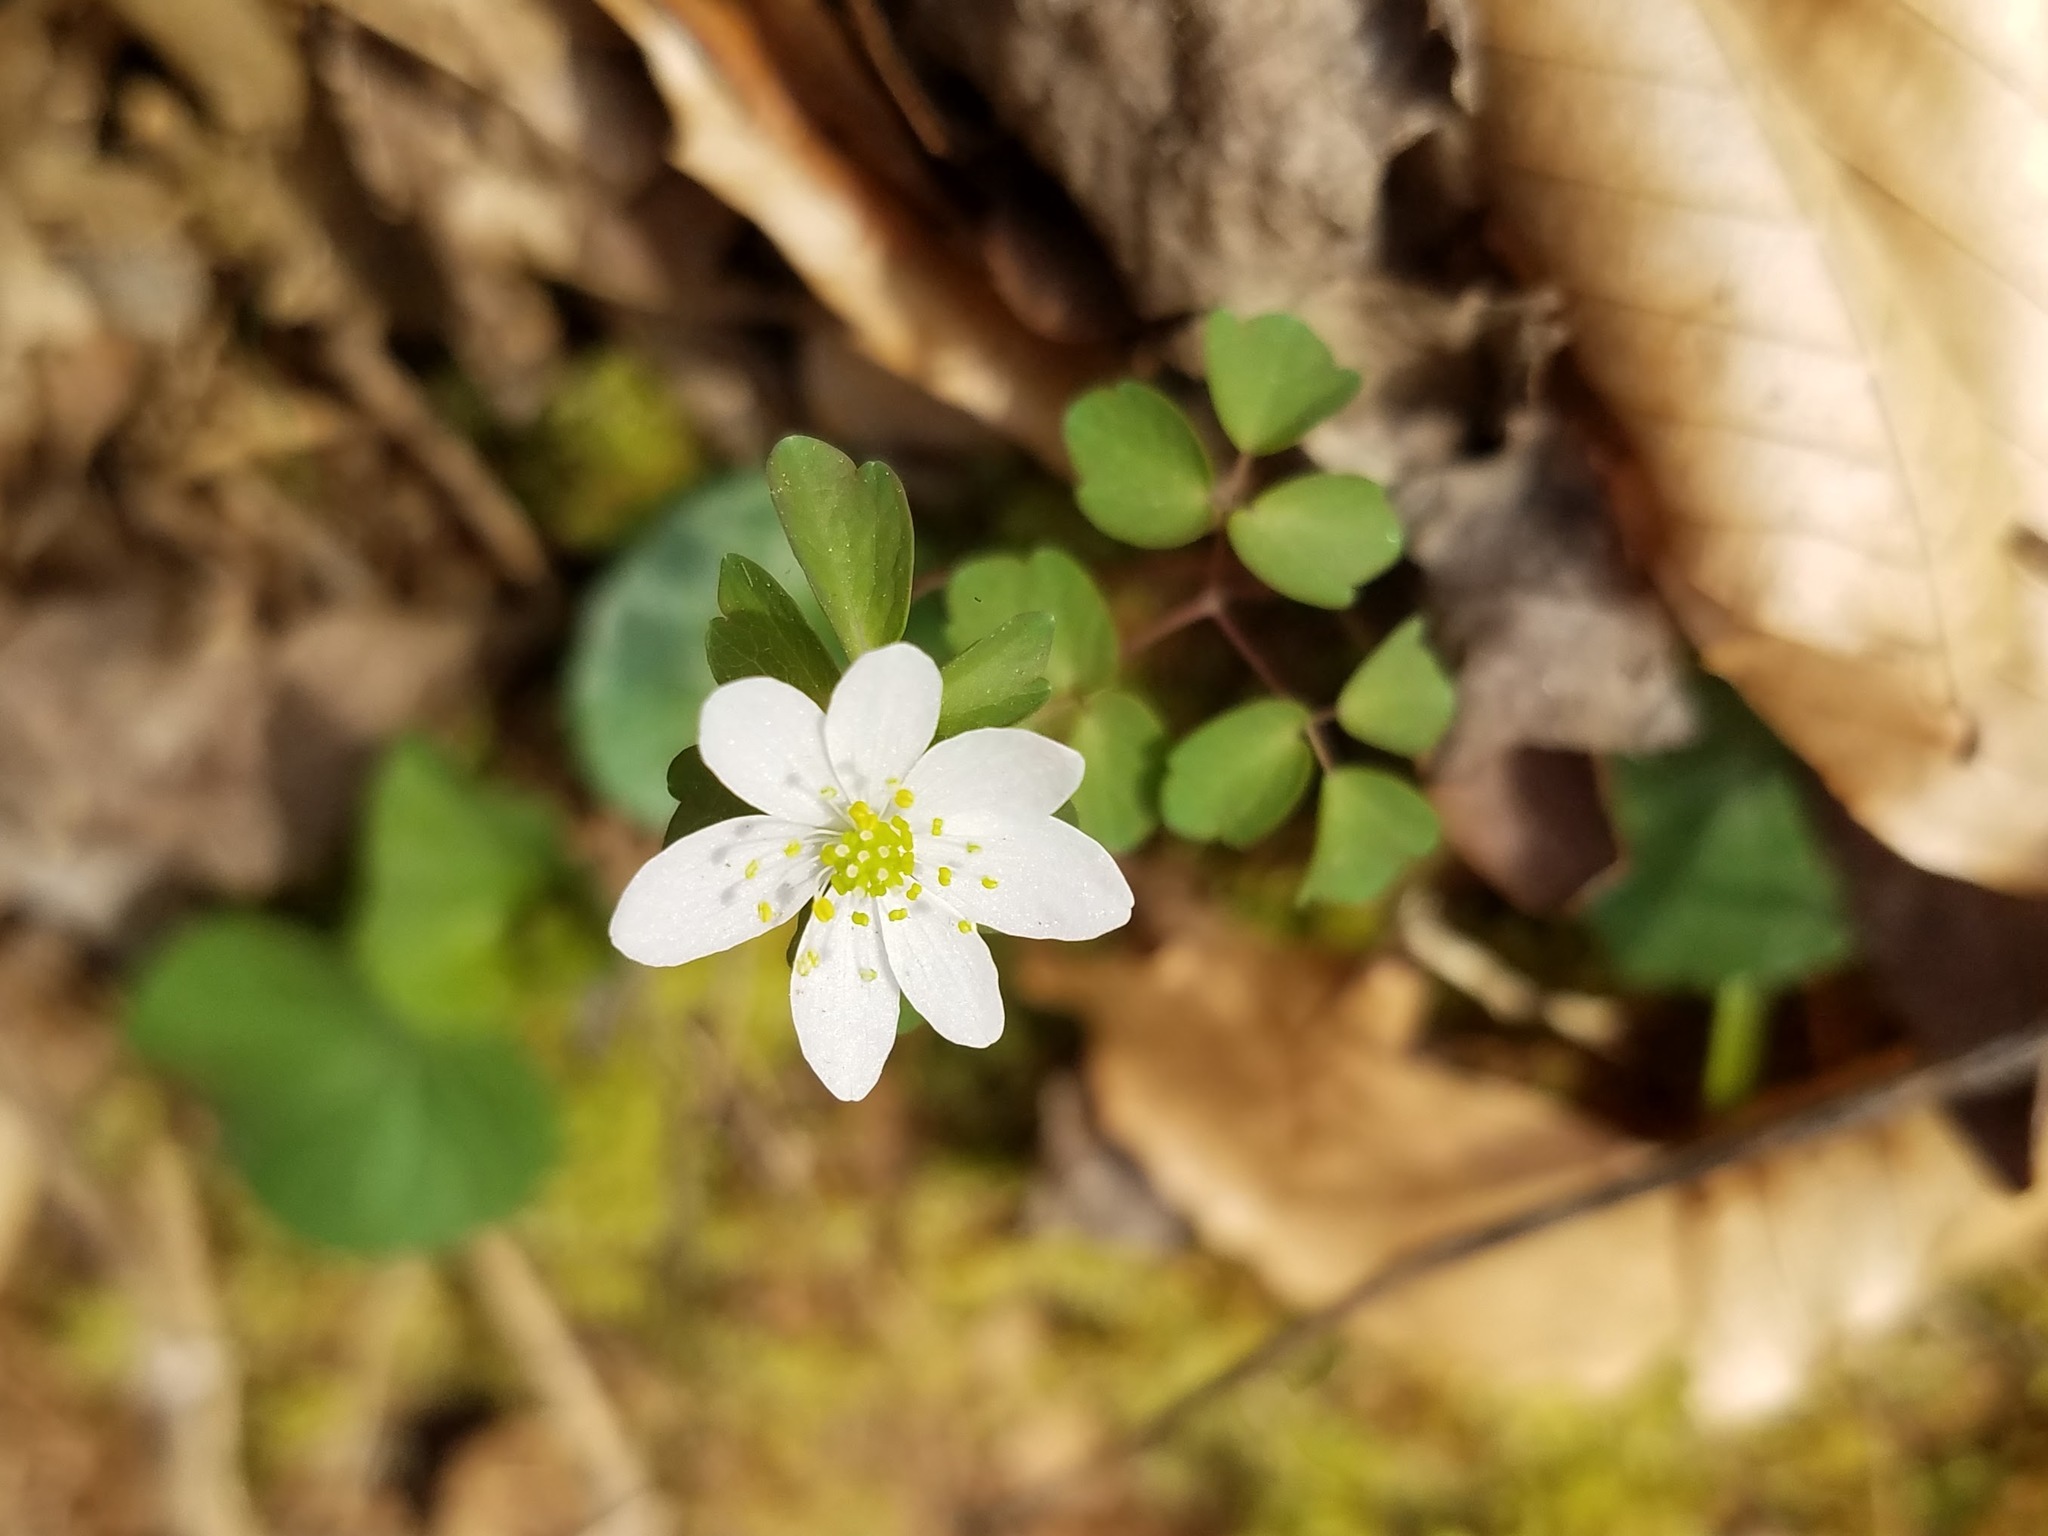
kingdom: Plantae
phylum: Tracheophyta
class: Magnoliopsida
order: Ranunculales
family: Ranunculaceae
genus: Thalictrum
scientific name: Thalictrum thalictroides
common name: Rue-anemone
